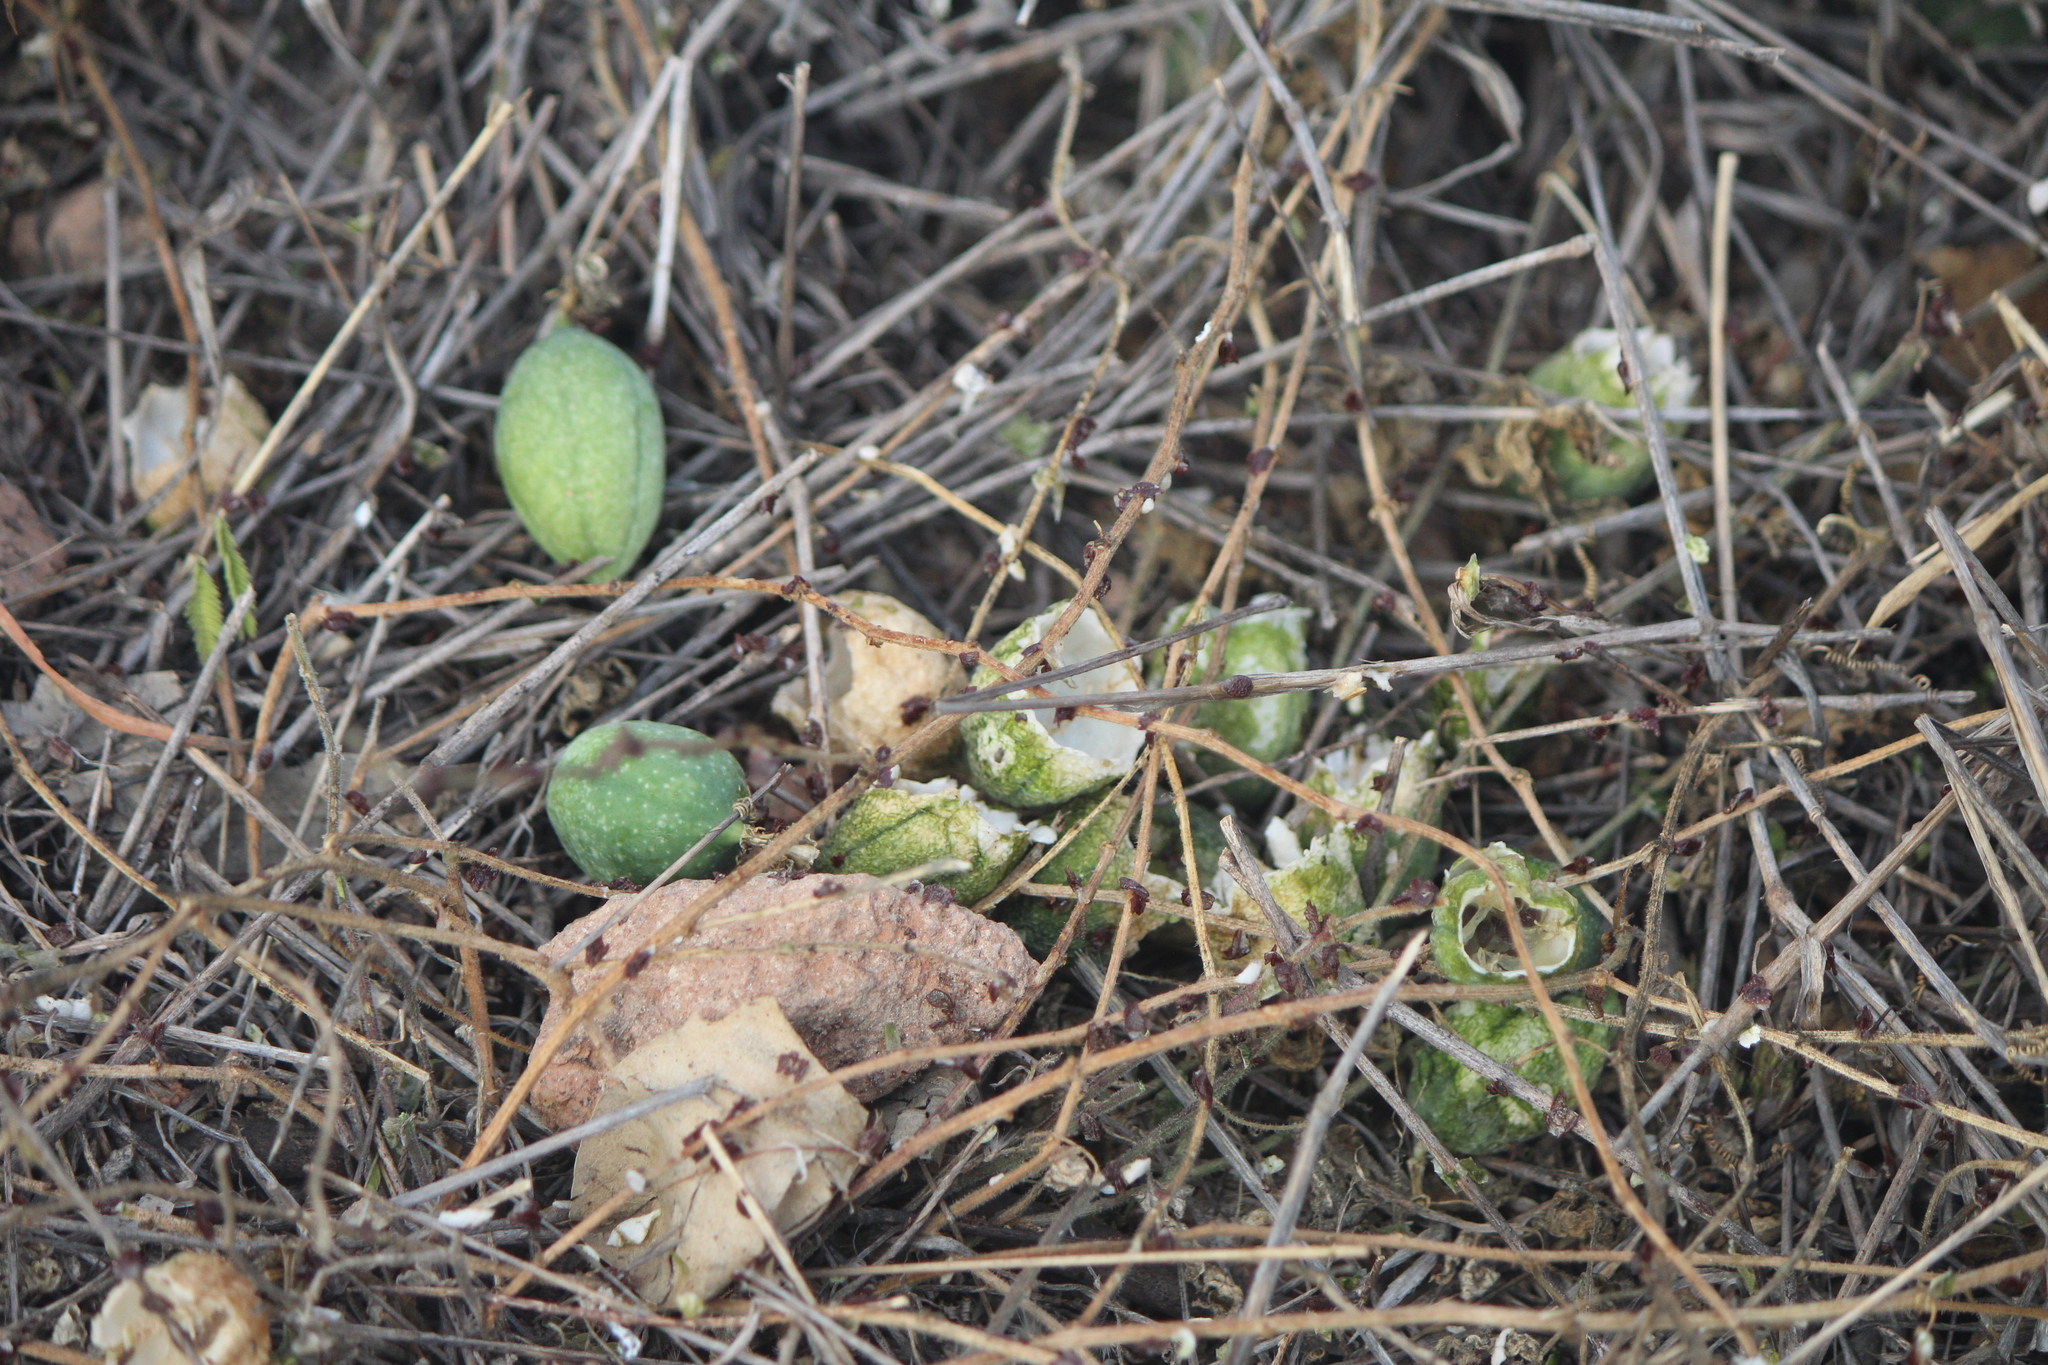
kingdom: Plantae
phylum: Tracheophyta
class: Magnoliopsida
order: Malpighiales
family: Passifloraceae
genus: Passiflora
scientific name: Passiflora bryonioides
